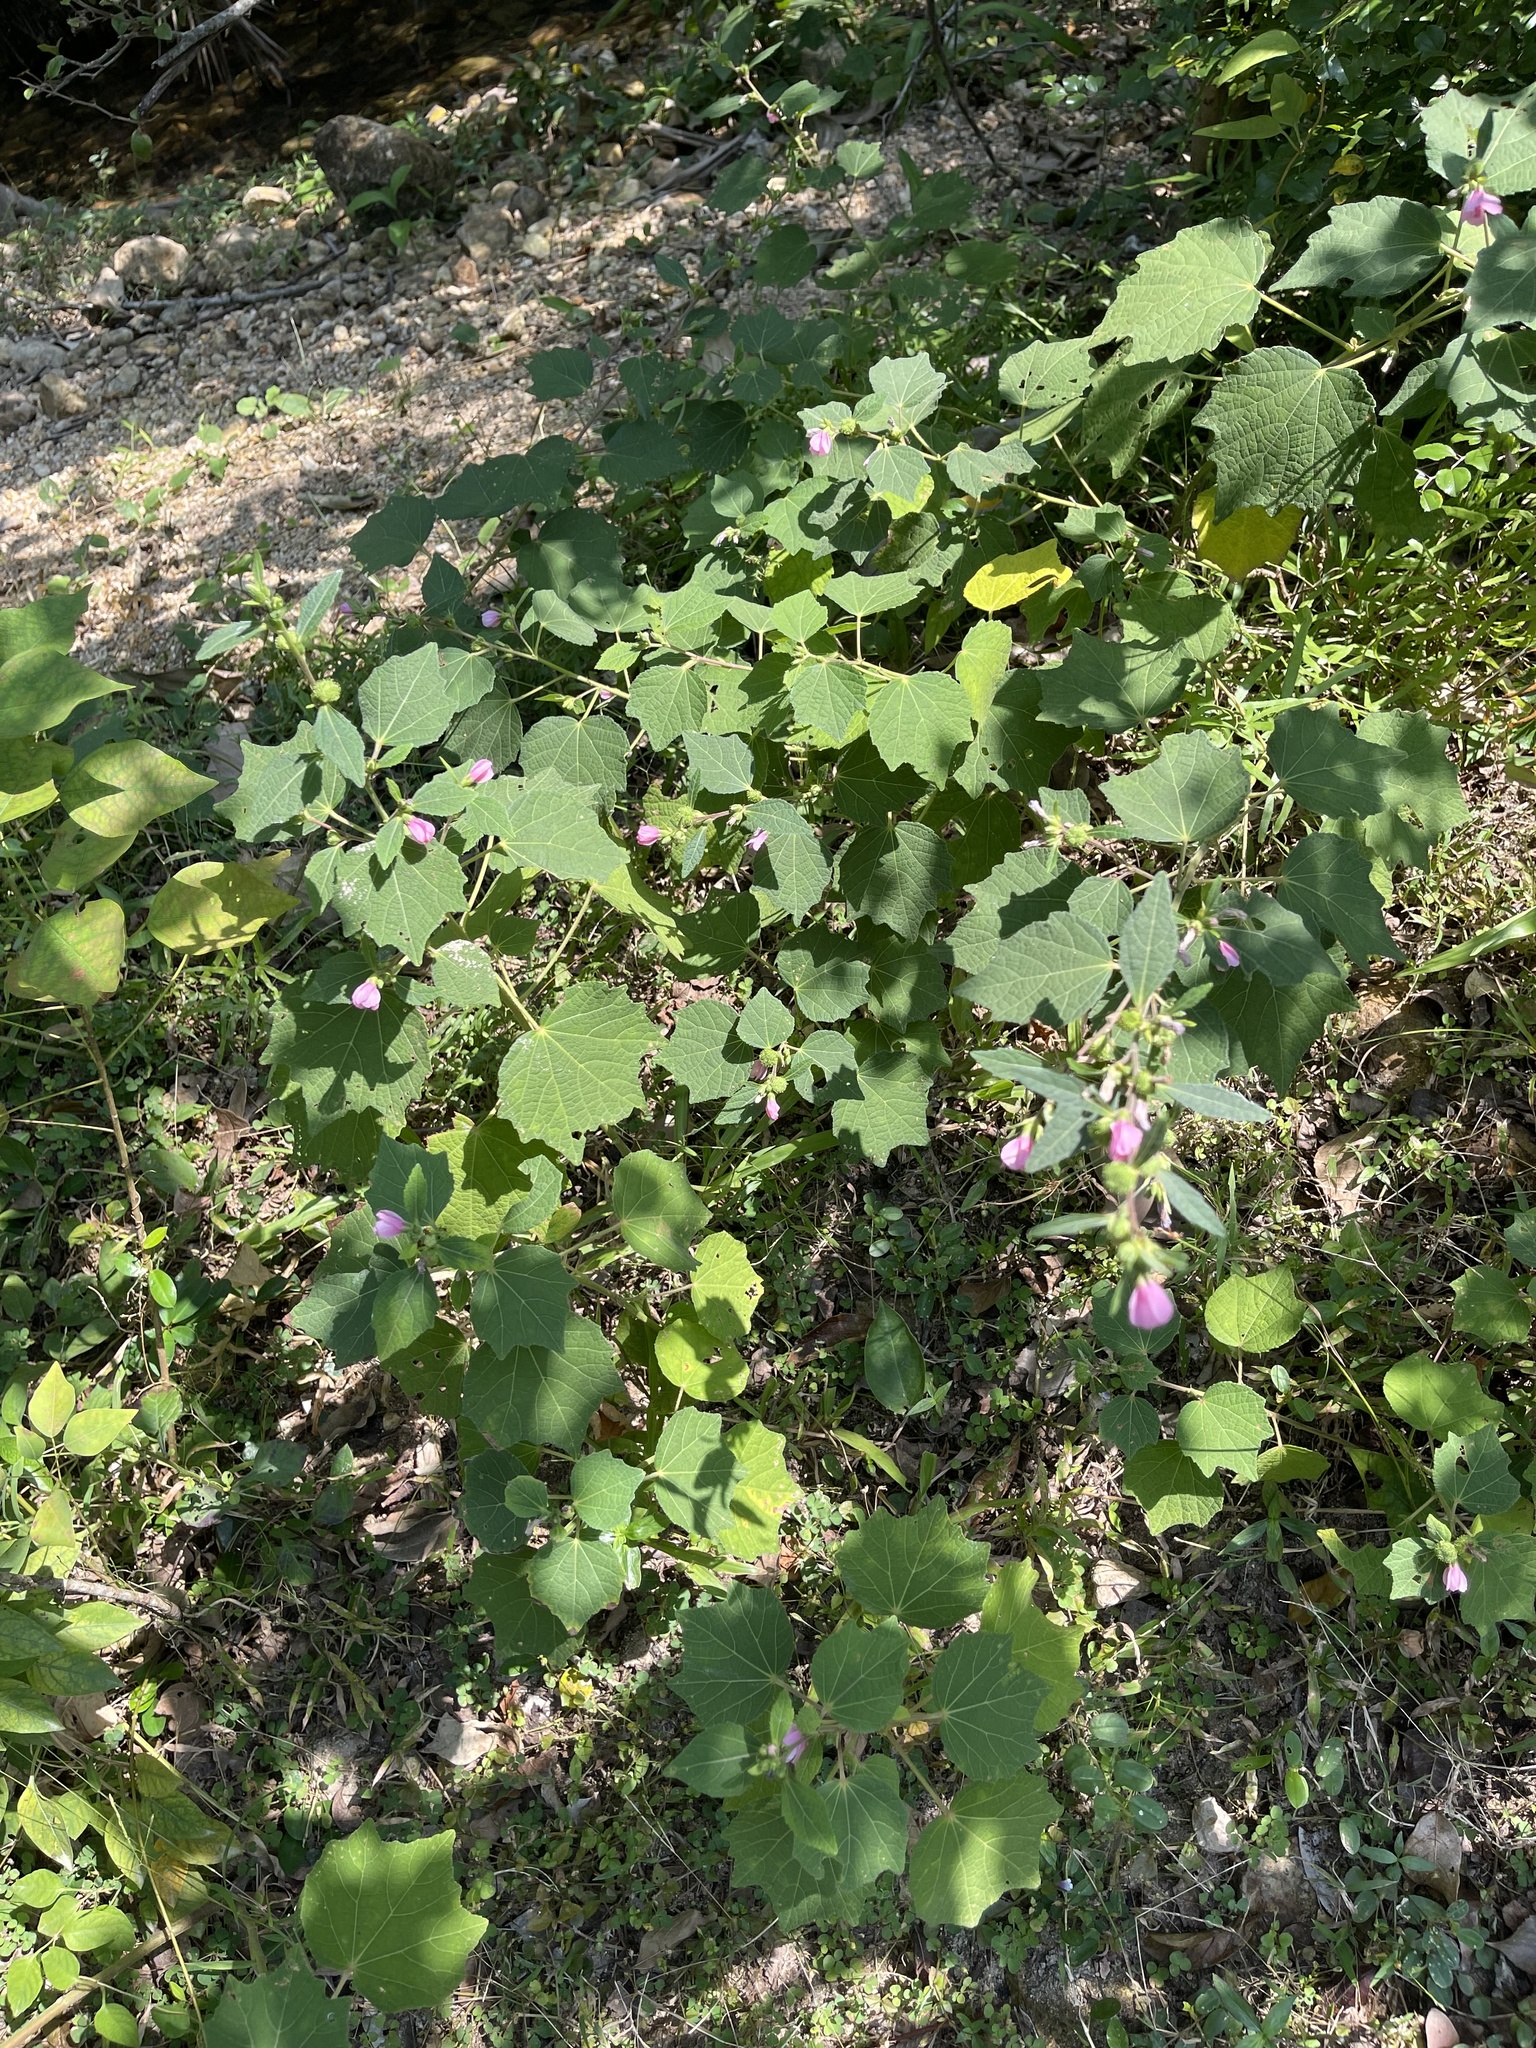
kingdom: Plantae
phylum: Tracheophyta
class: Magnoliopsida
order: Malvales
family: Malvaceae
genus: Urena
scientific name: Urena lobata
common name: Caesarweed
